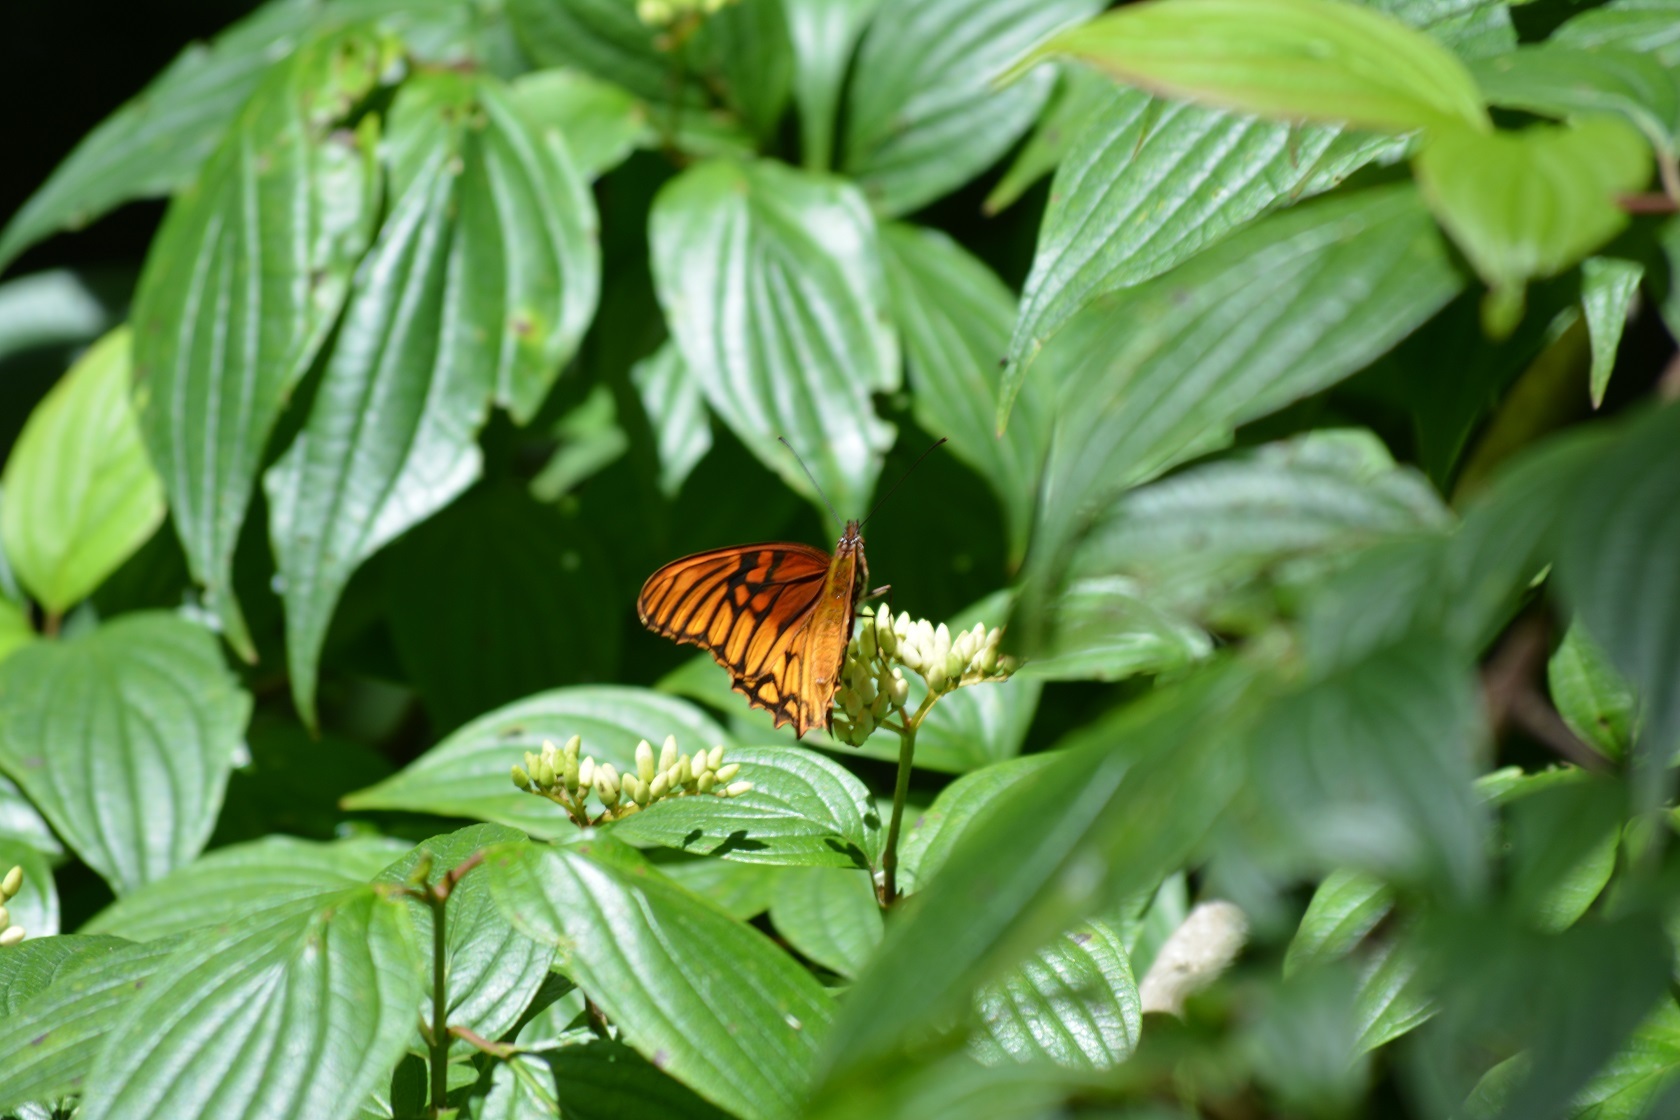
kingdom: Animalia
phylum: Arthropoda
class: Insecta
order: Lepidoptera
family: Nymphalidae
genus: Dione
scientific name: Dione moneta
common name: Mexican silverspot
